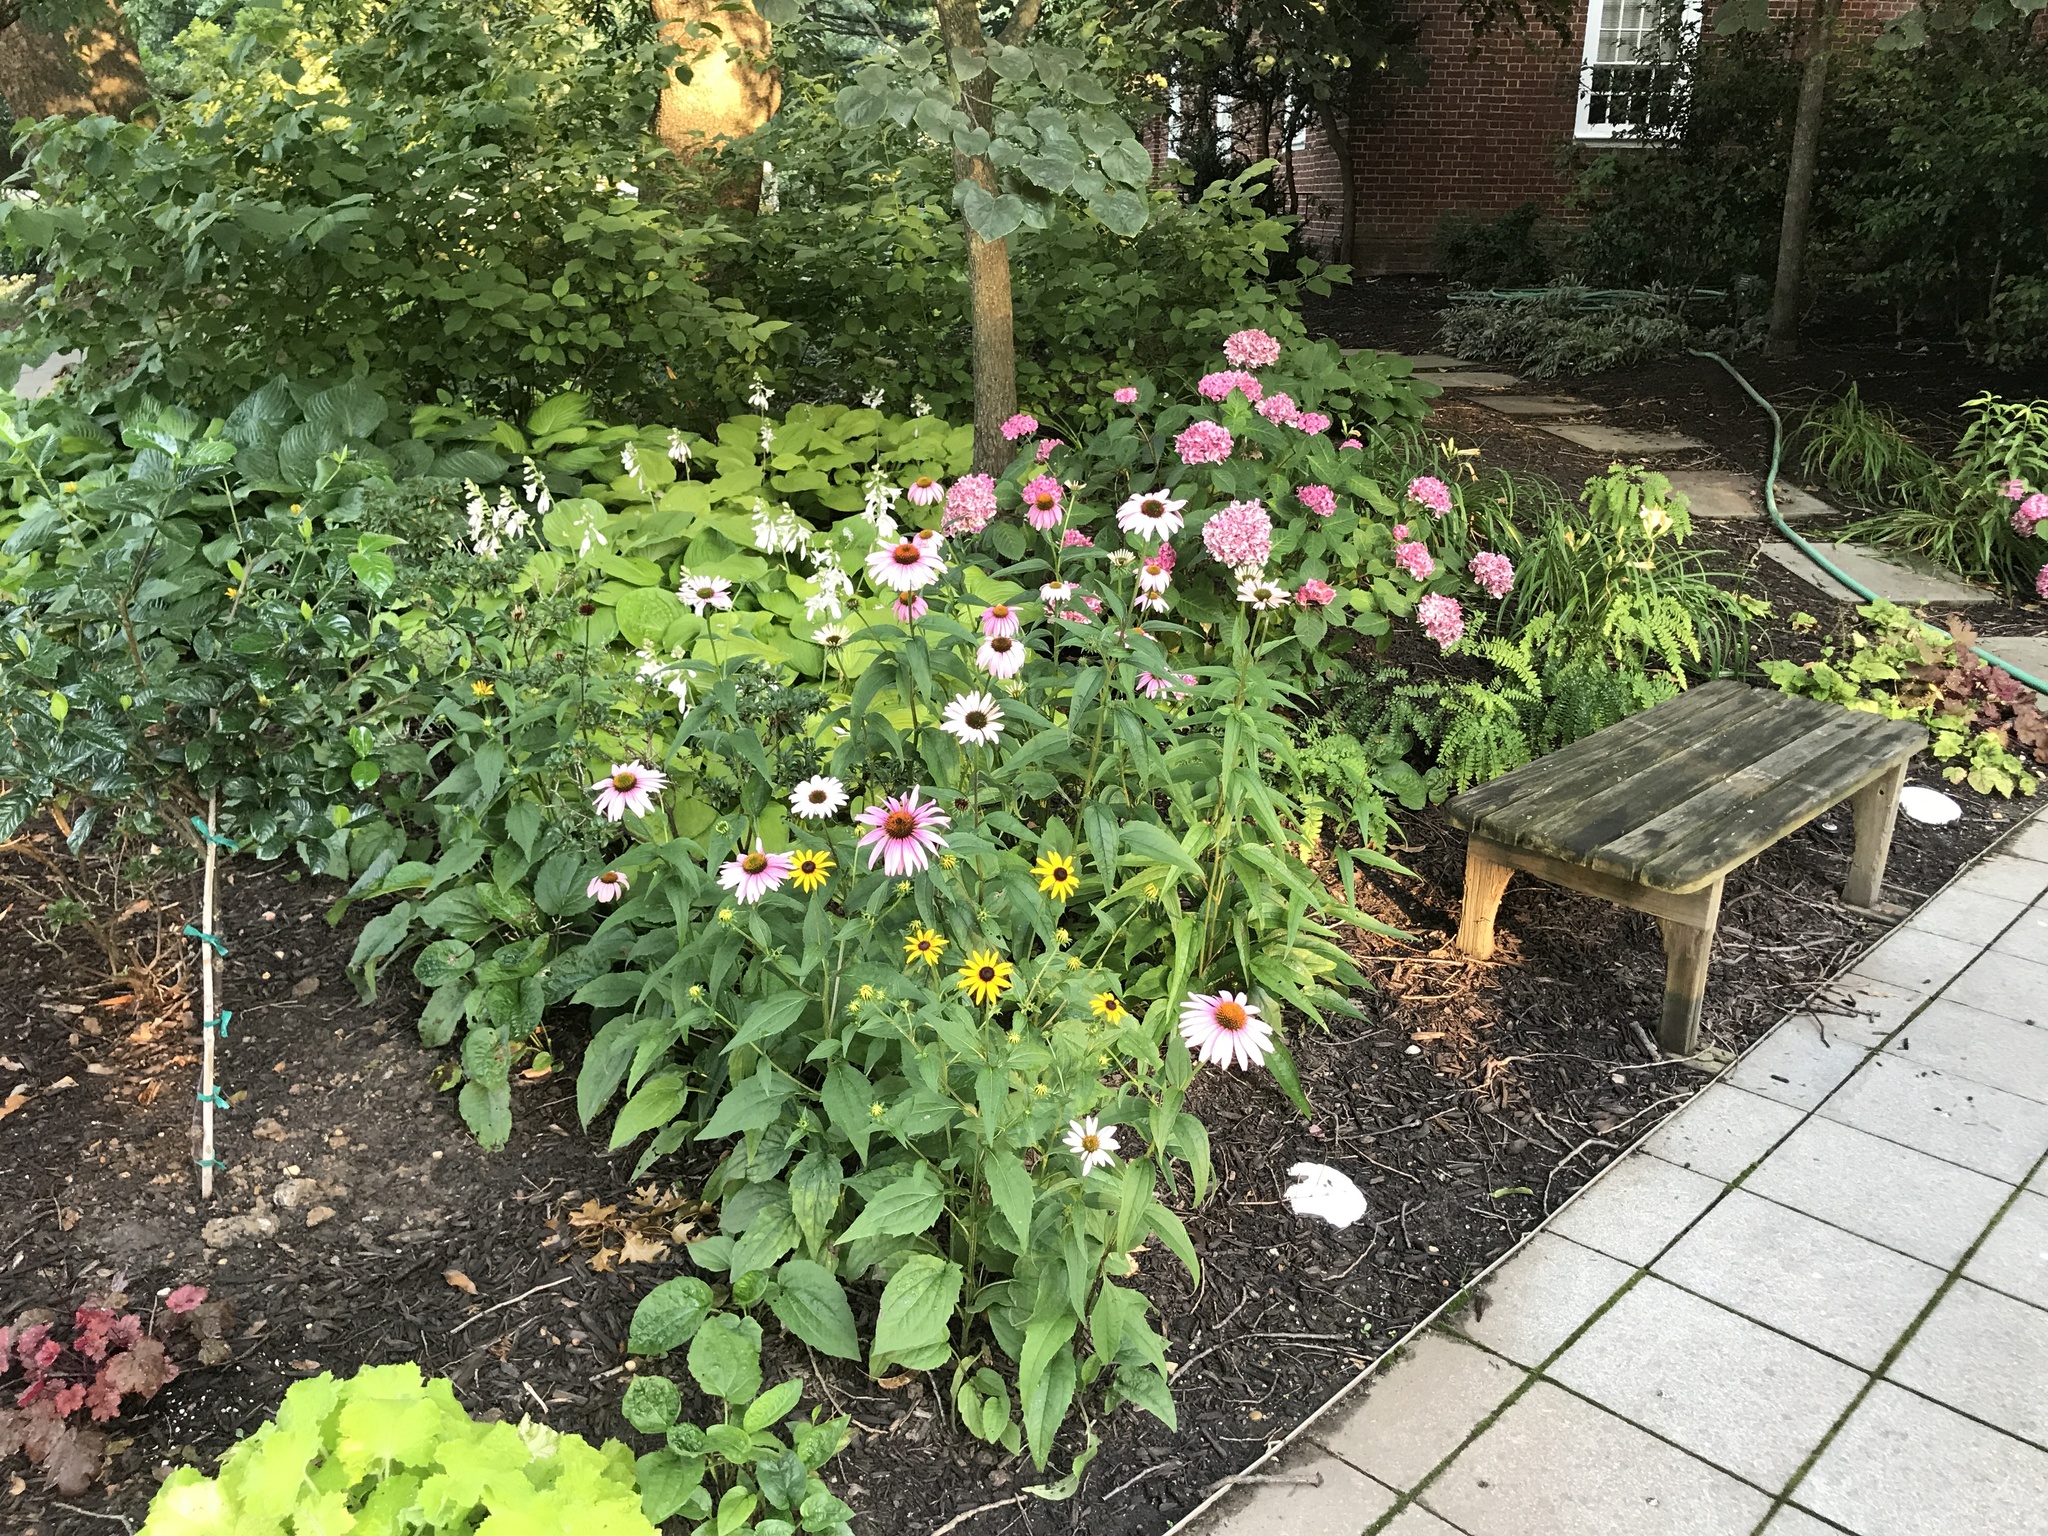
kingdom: Plantae
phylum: Tracheophyta
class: Magnoliopsida
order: Asterales
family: Asteraceae
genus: Echinacea
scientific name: Echinacea purpurea
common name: Broad-leaved purple coneflower
